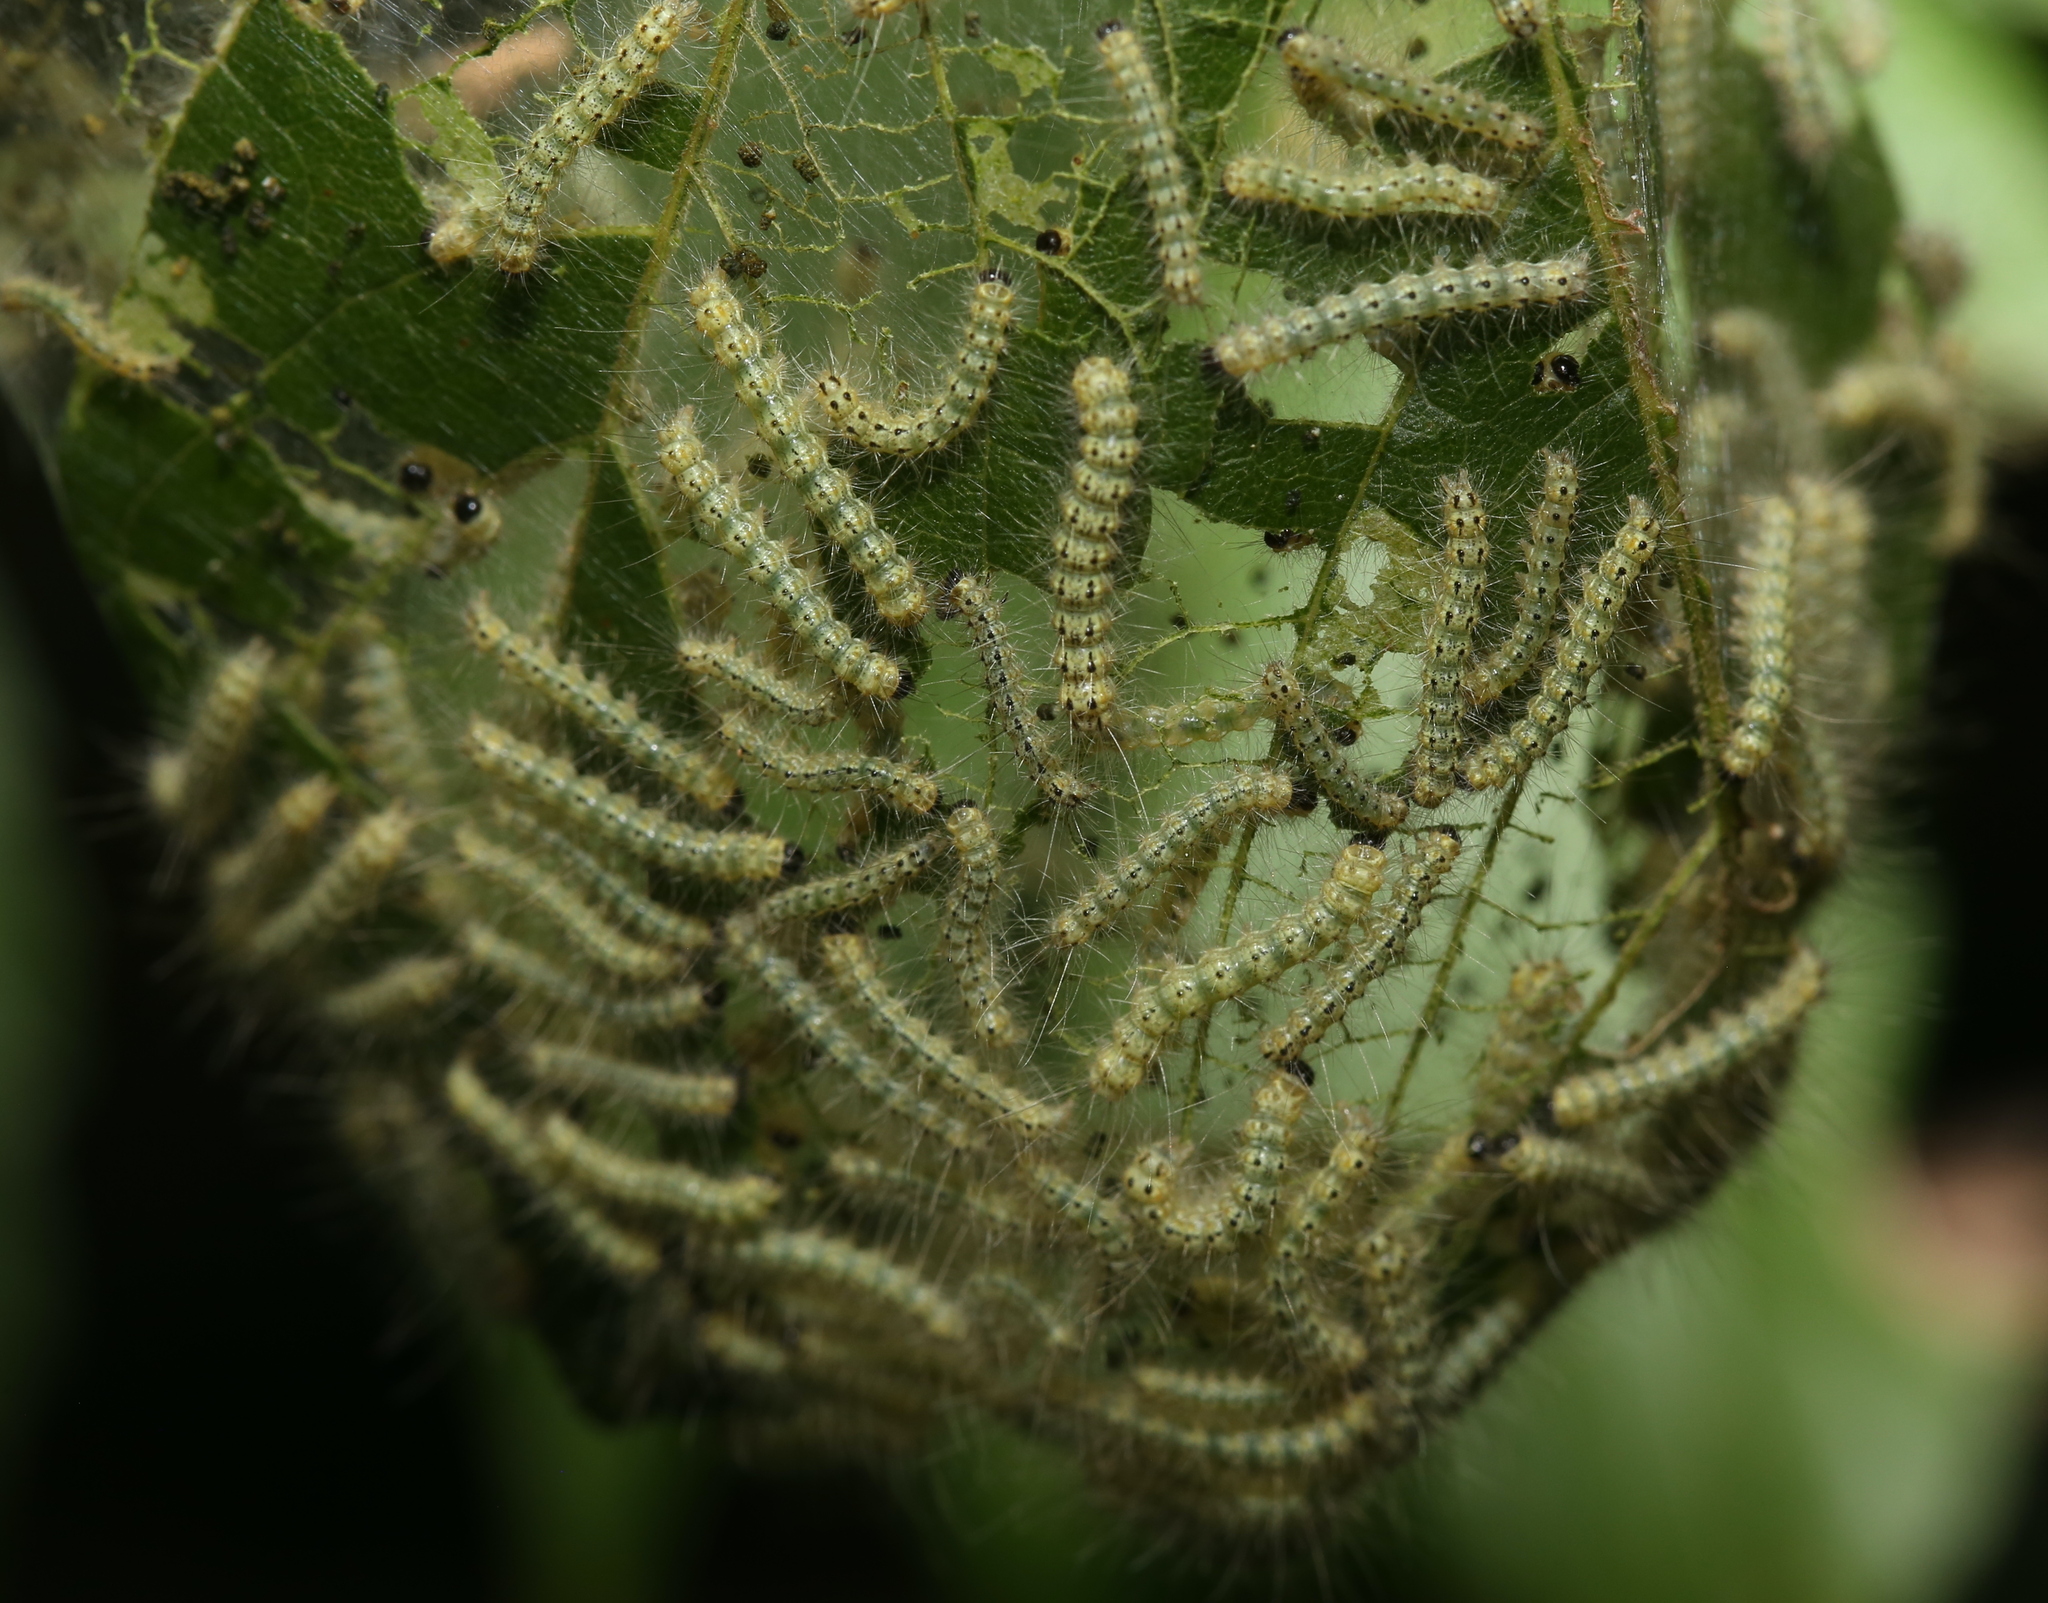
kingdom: Animalia
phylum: Arthropoda
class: Insecta
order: Lepidoptera
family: Erebidae
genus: Hyphantria
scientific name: Hyphantria cunea
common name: American white moth
